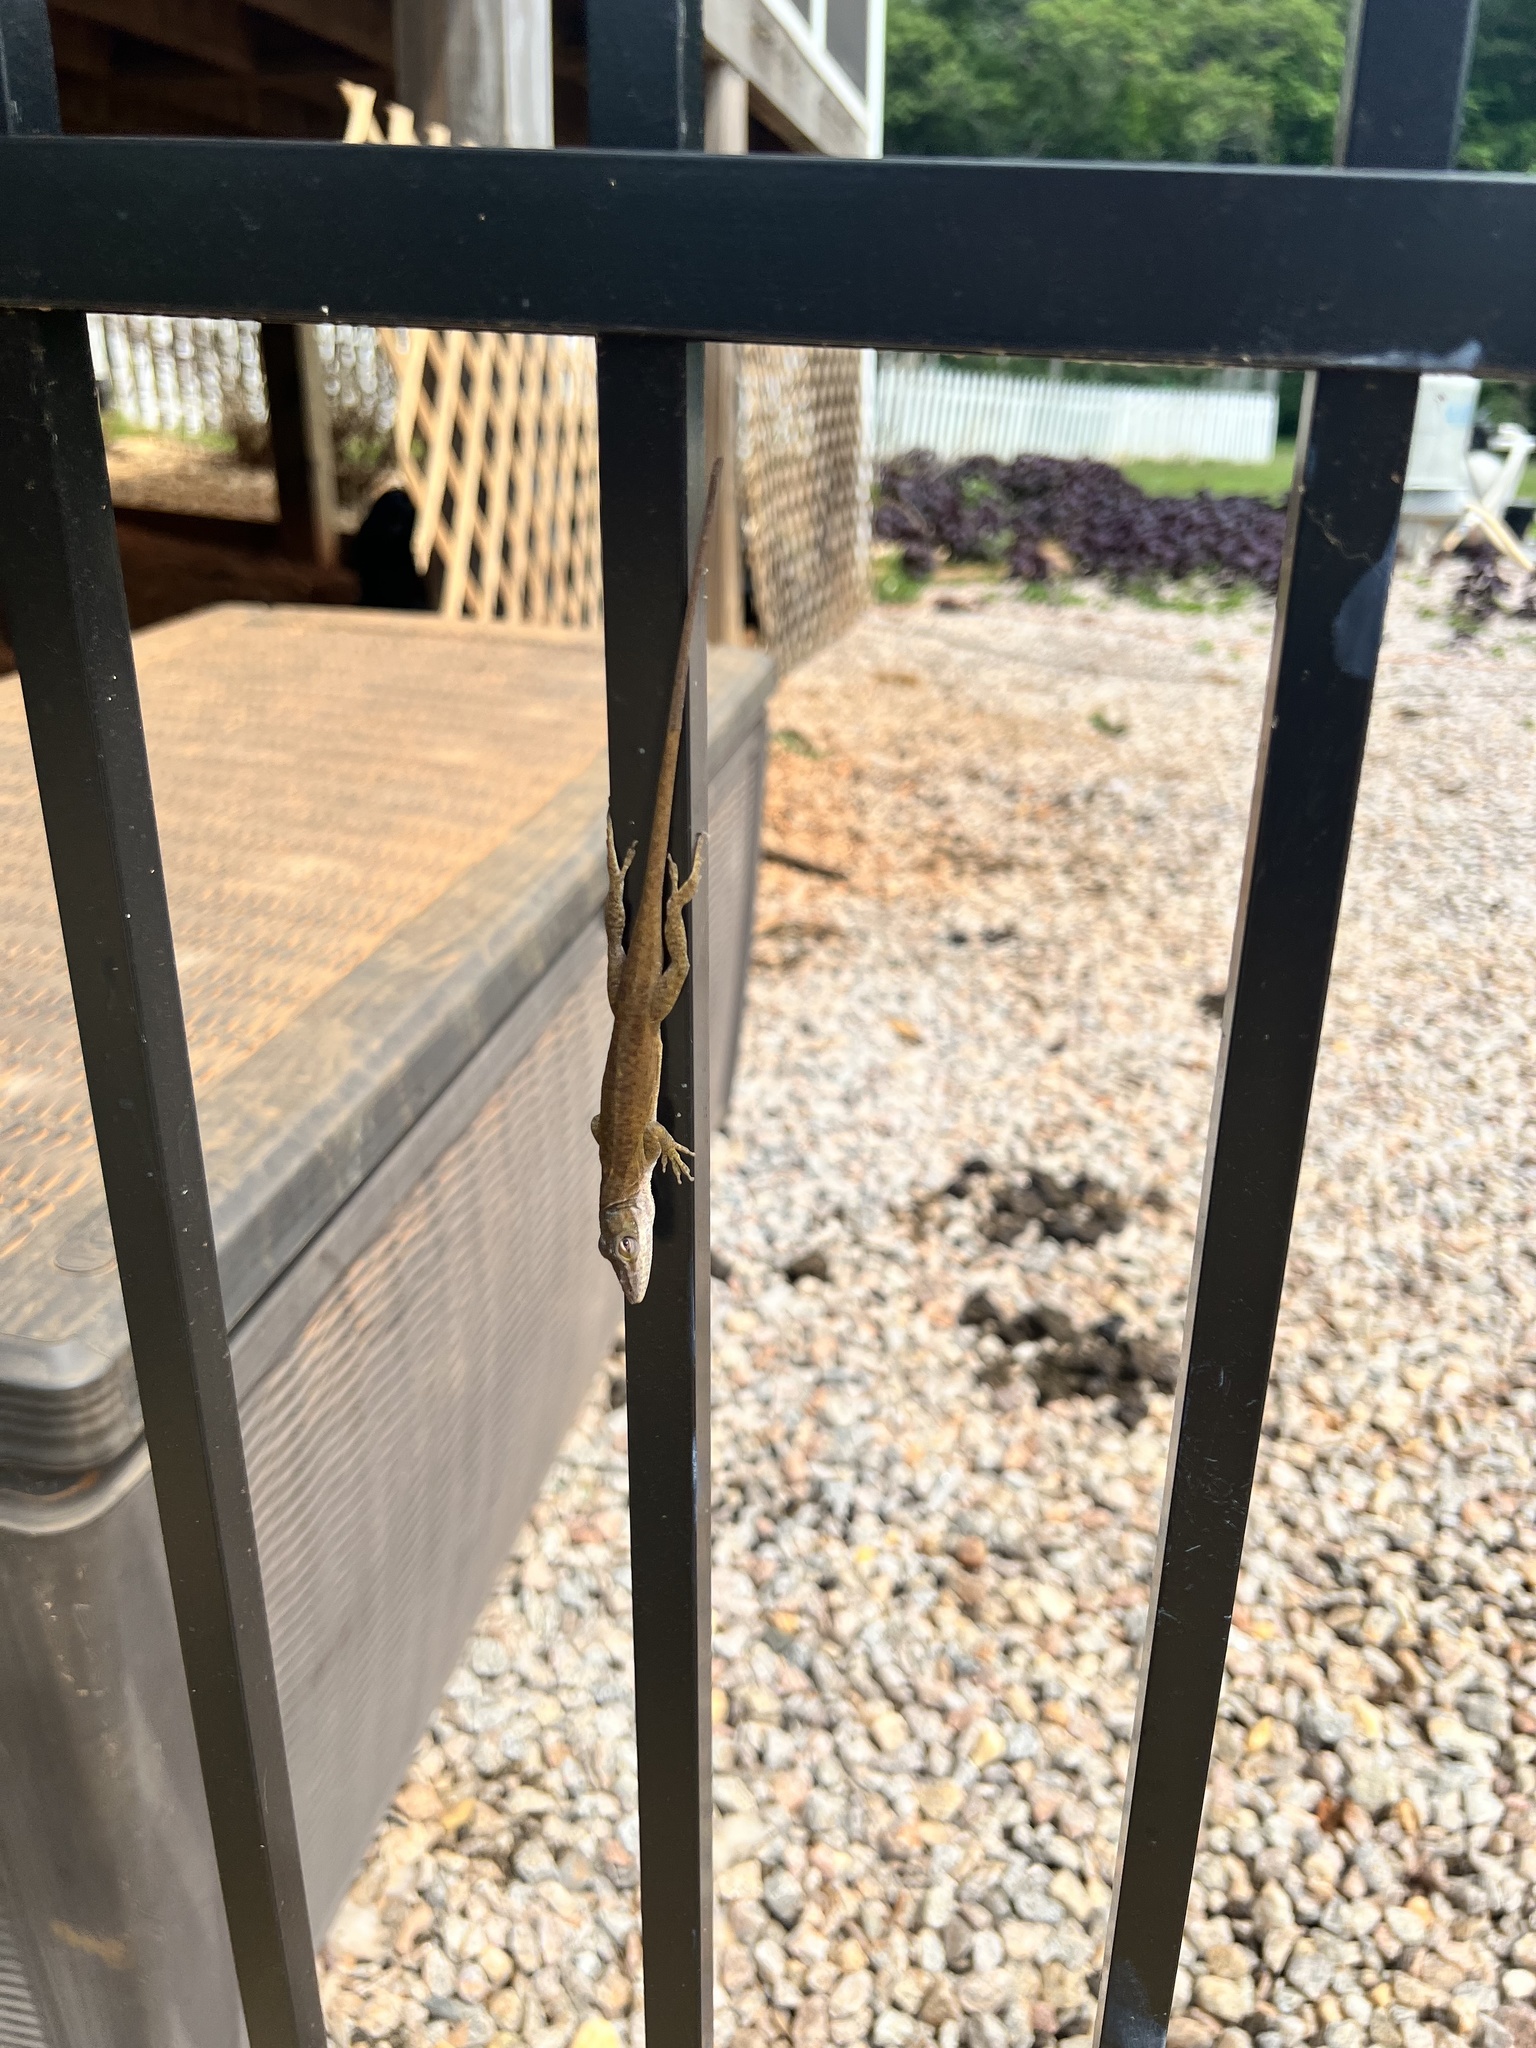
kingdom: Animalia
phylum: Chordata
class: Squamata
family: Dactyloidae
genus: Anolis
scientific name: Anolis carolinensis
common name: Green anole
